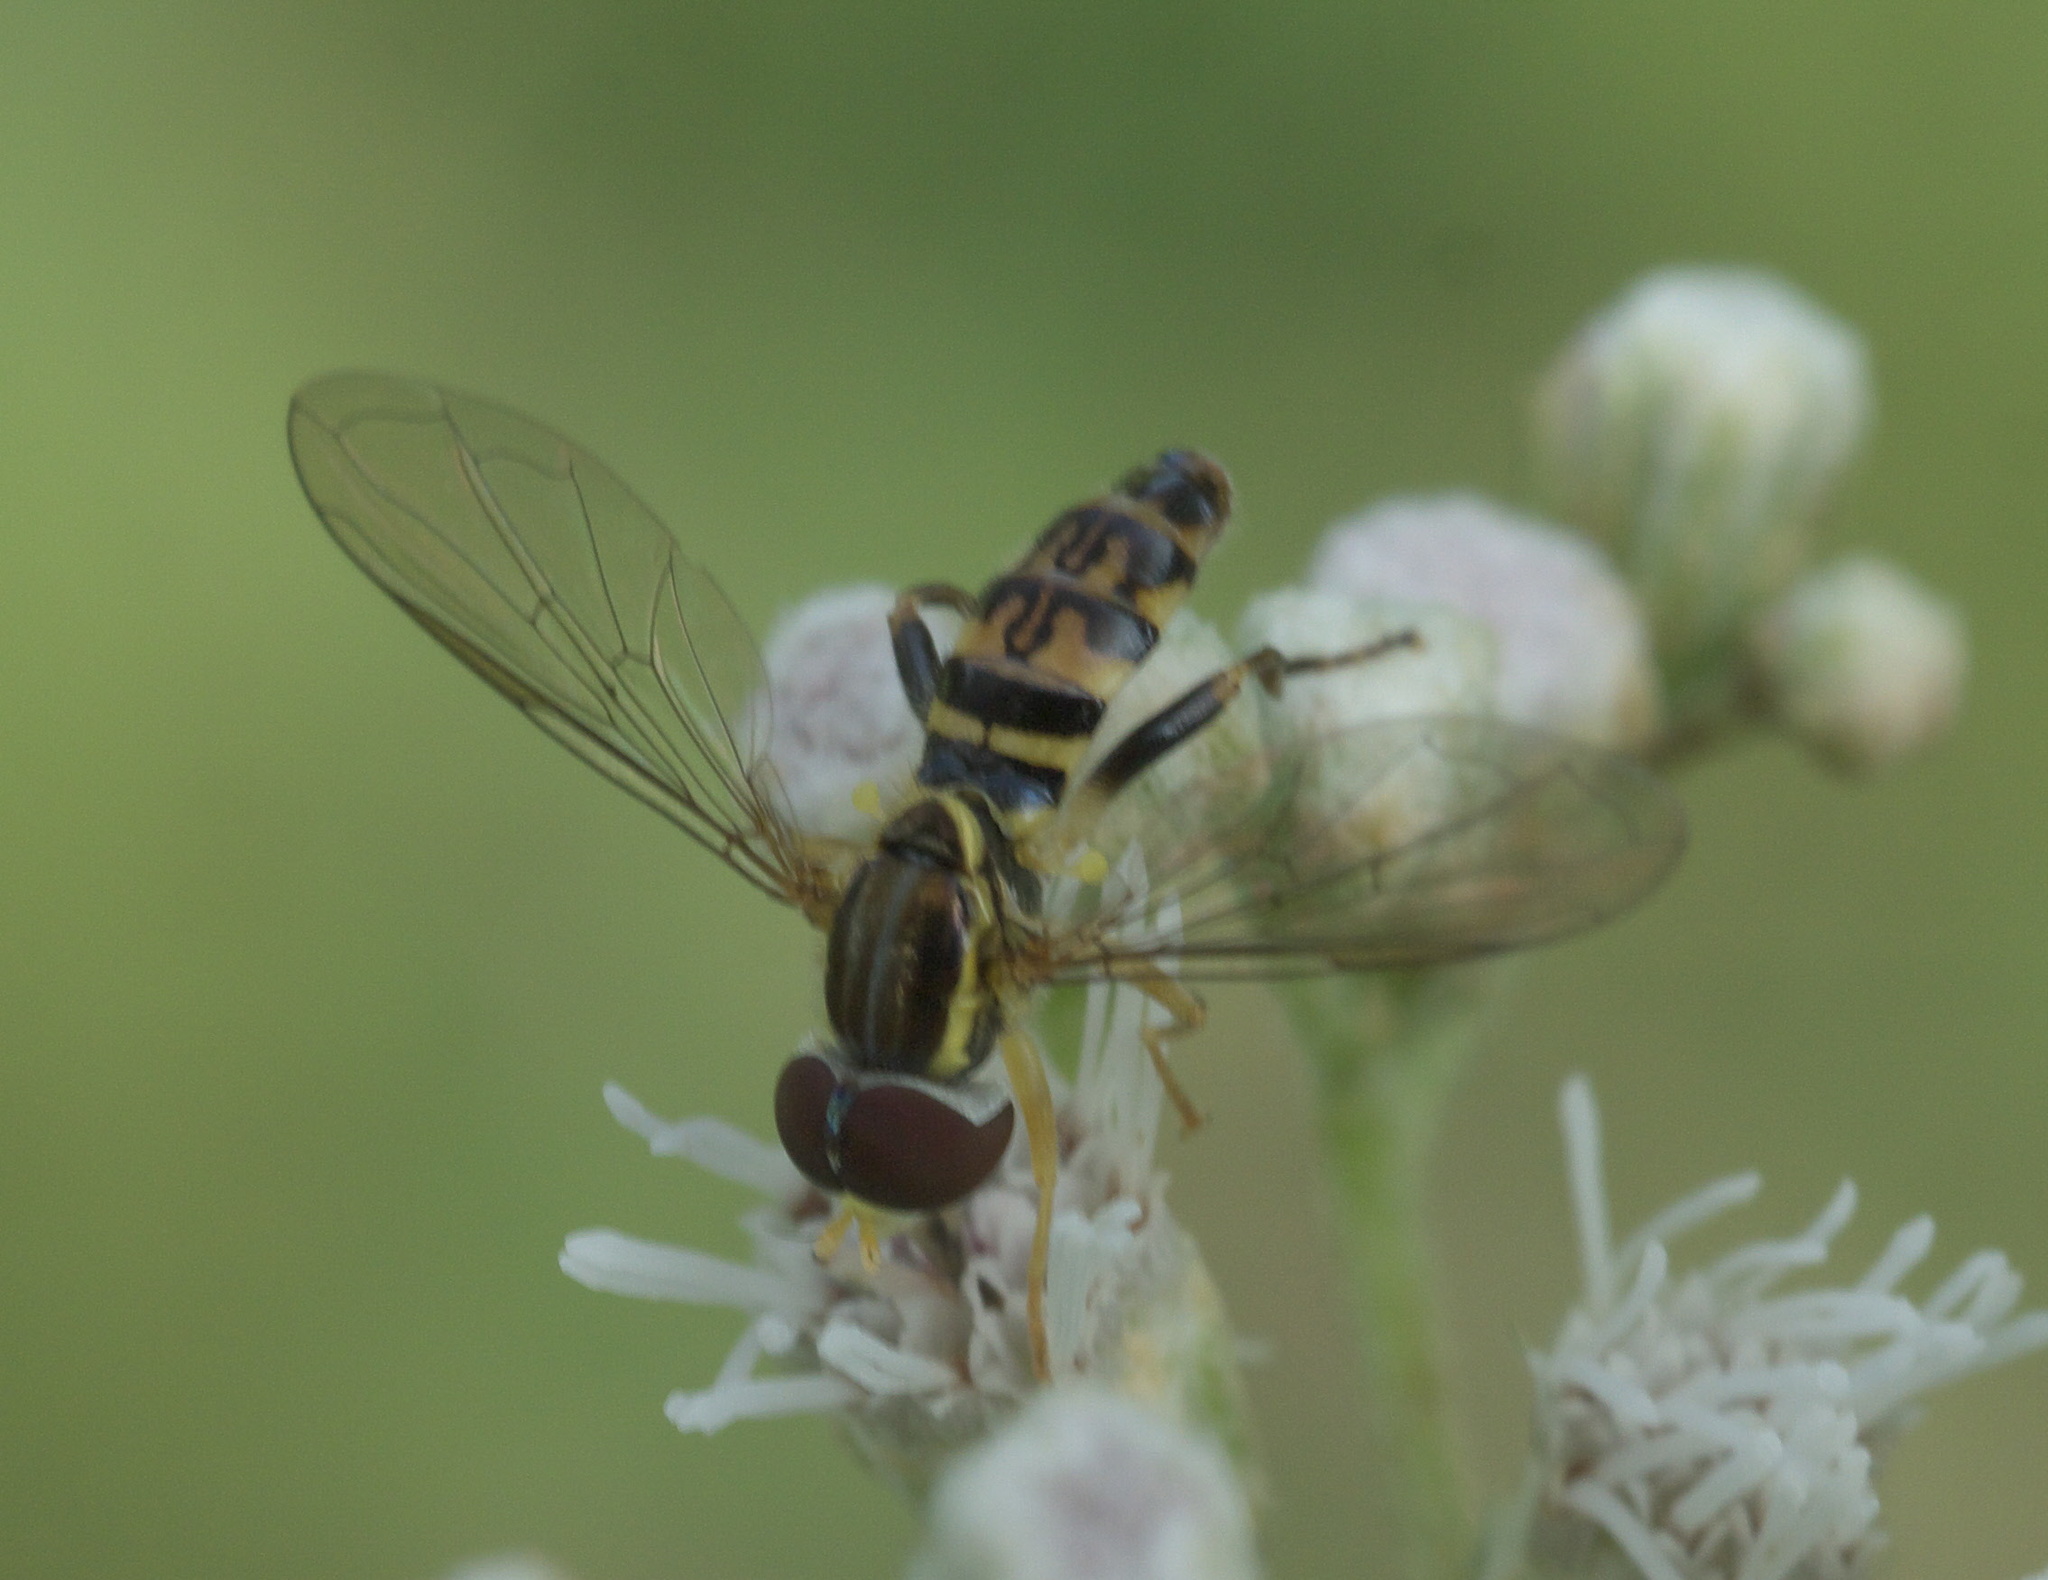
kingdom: Animalia
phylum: Arthropoda
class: Insecta
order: Diptera
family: Syrphidae
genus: Toxomerus
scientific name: Toxomerus geminatus
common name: Eastern calligrapher
